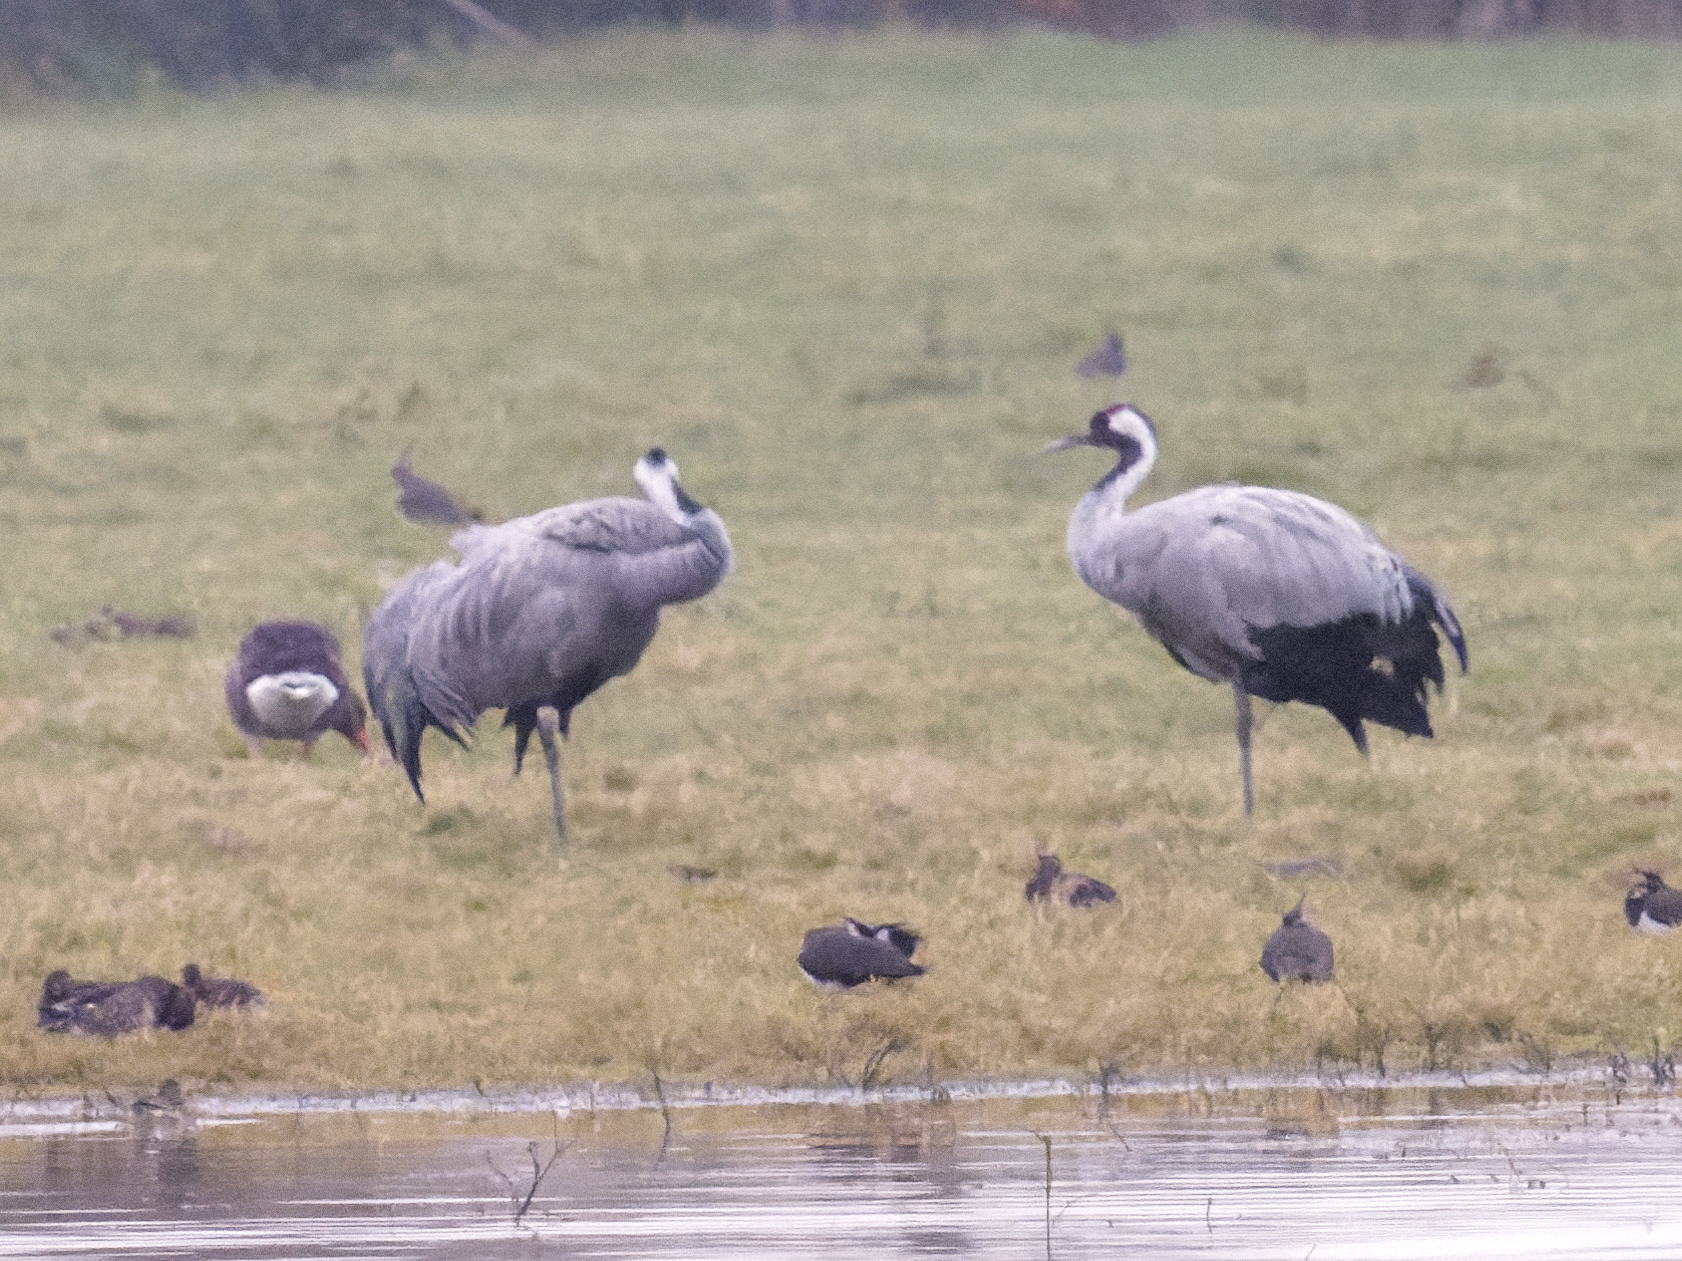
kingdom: Animalia
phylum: Chordata
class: Aves
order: Gruiformes
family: Gruidae
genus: Grus
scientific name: Grus grus
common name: Common crane
